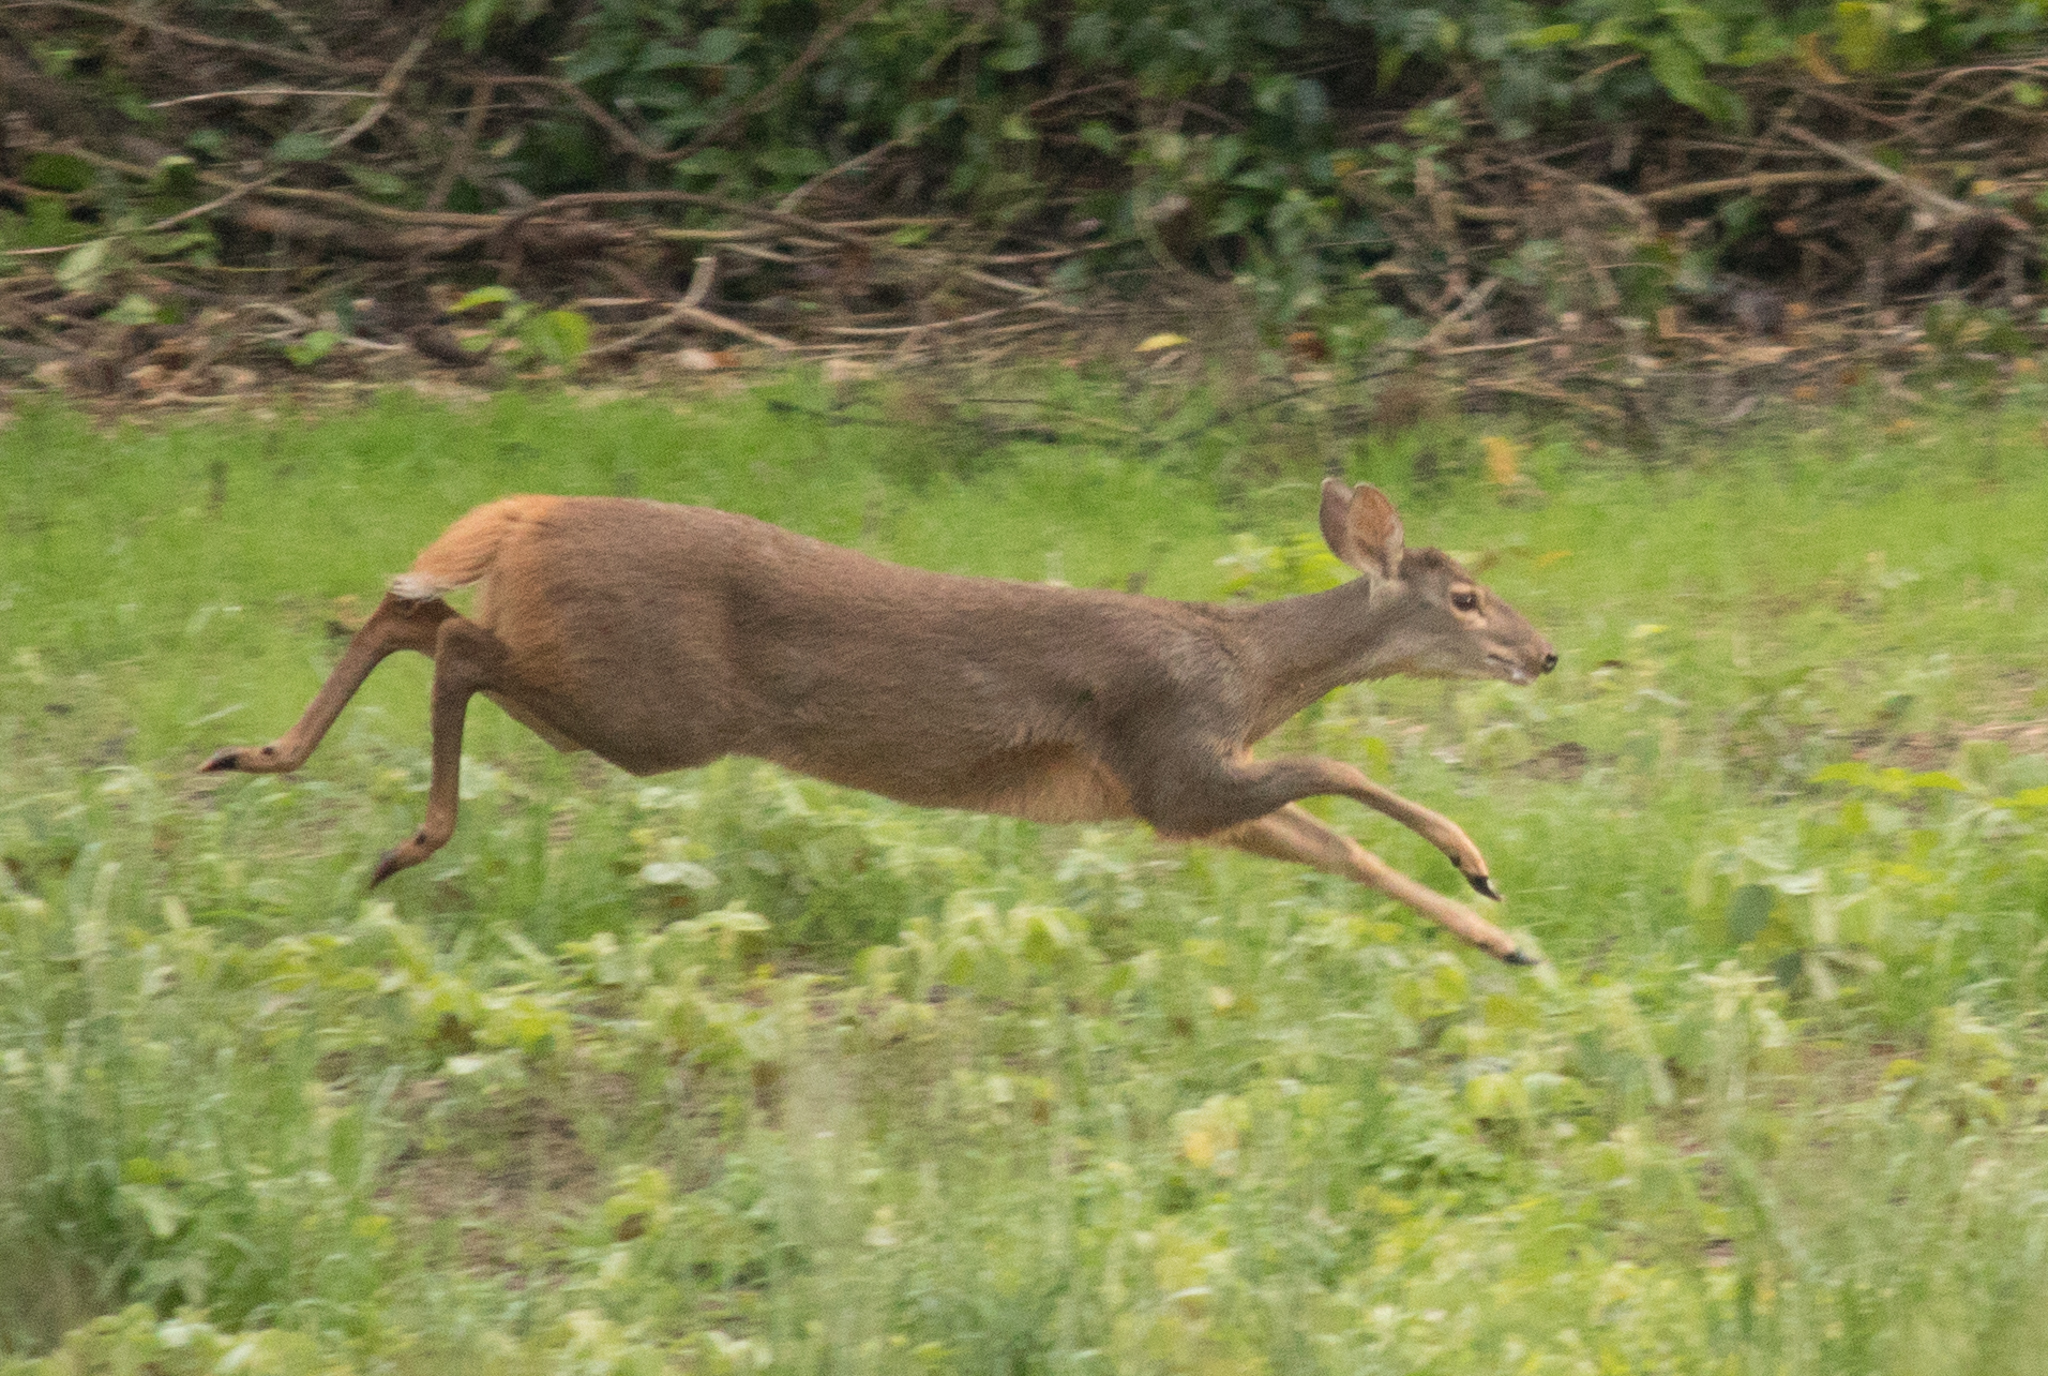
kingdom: Animalia
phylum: Chordata
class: Mammalia
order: Artiodactyla
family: Cervidae
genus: Mazama
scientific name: Mazama gouazoubira
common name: Gray brocket
